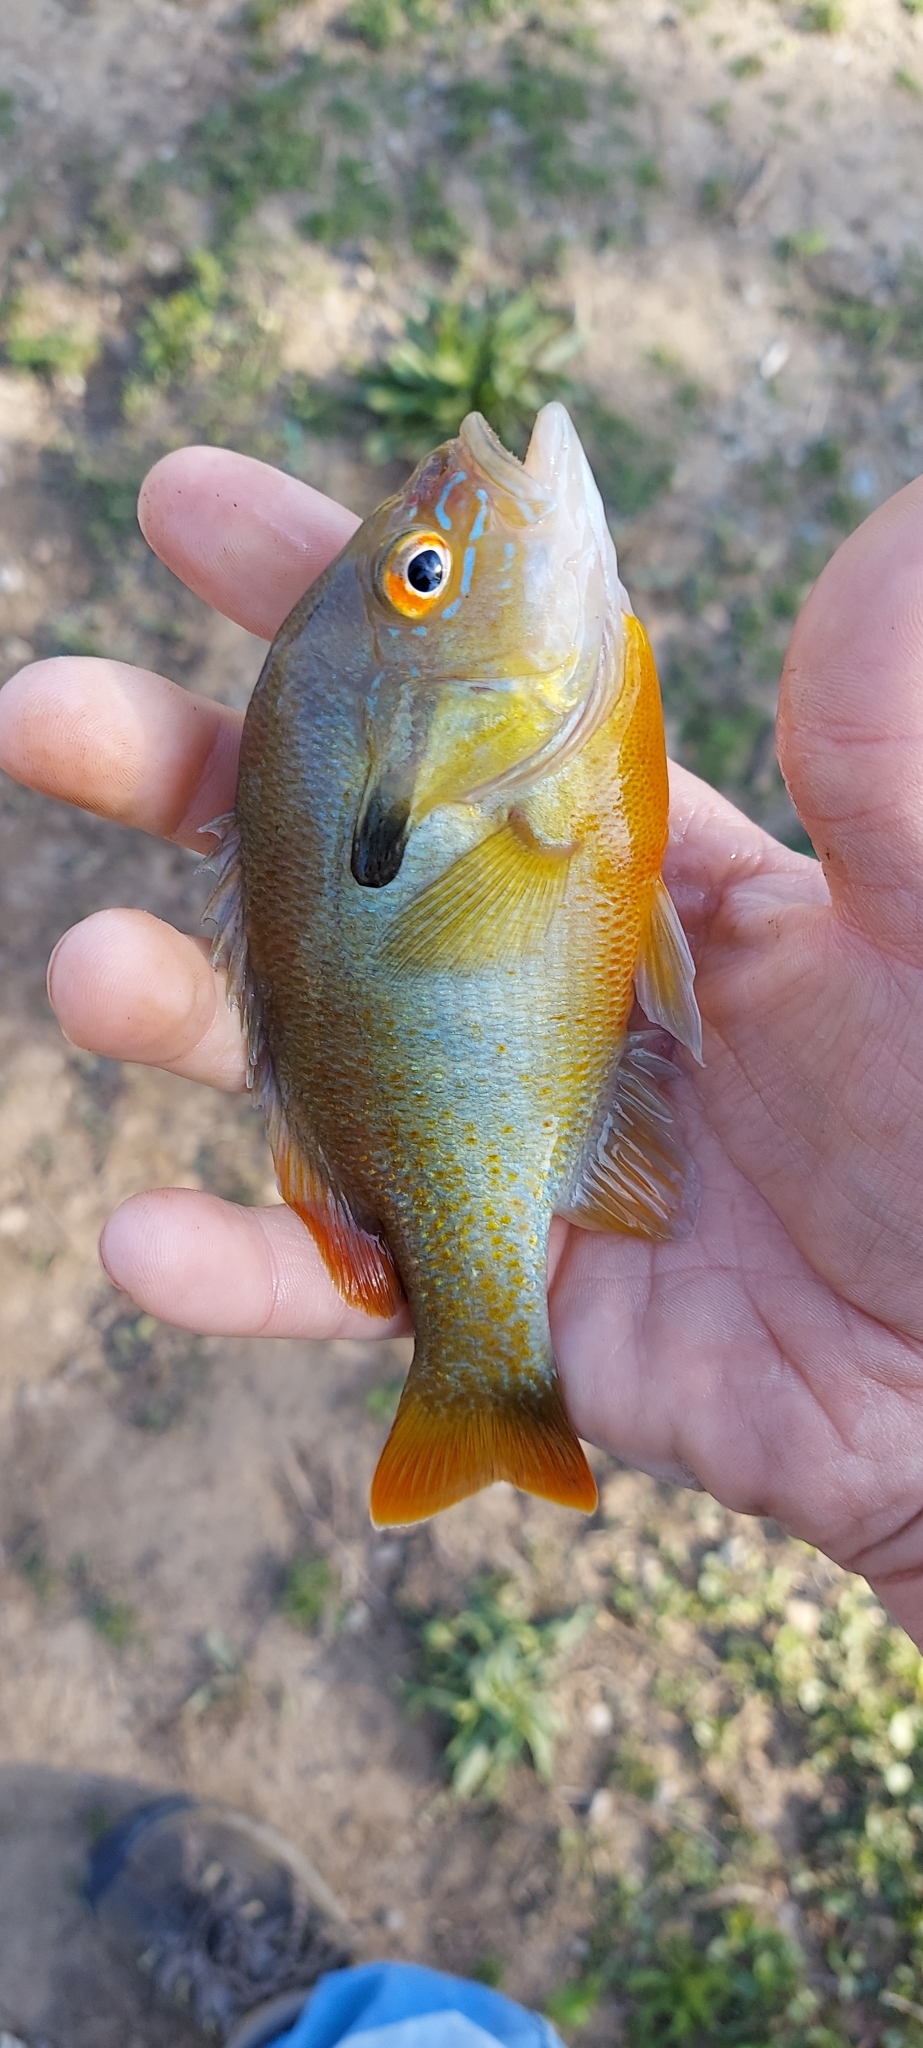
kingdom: Animalia
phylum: Chordata
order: Perciformes
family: Centrarchidae
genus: Lepomis
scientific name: Lepomis auritus
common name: Redbreast sunfish
